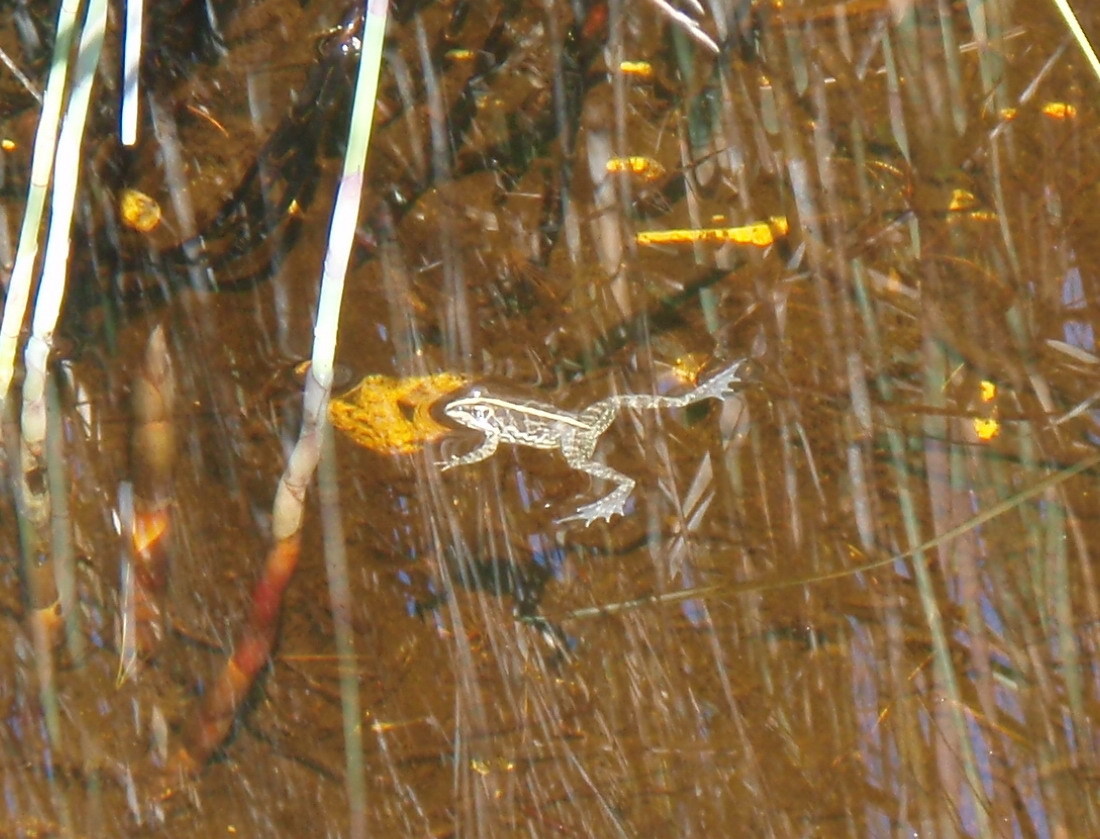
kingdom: Animalia
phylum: Chordata
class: Amphibia
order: Anura
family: Pyxicephalidae
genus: Amietia
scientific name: Amietia fuscigula
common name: Cape rana
